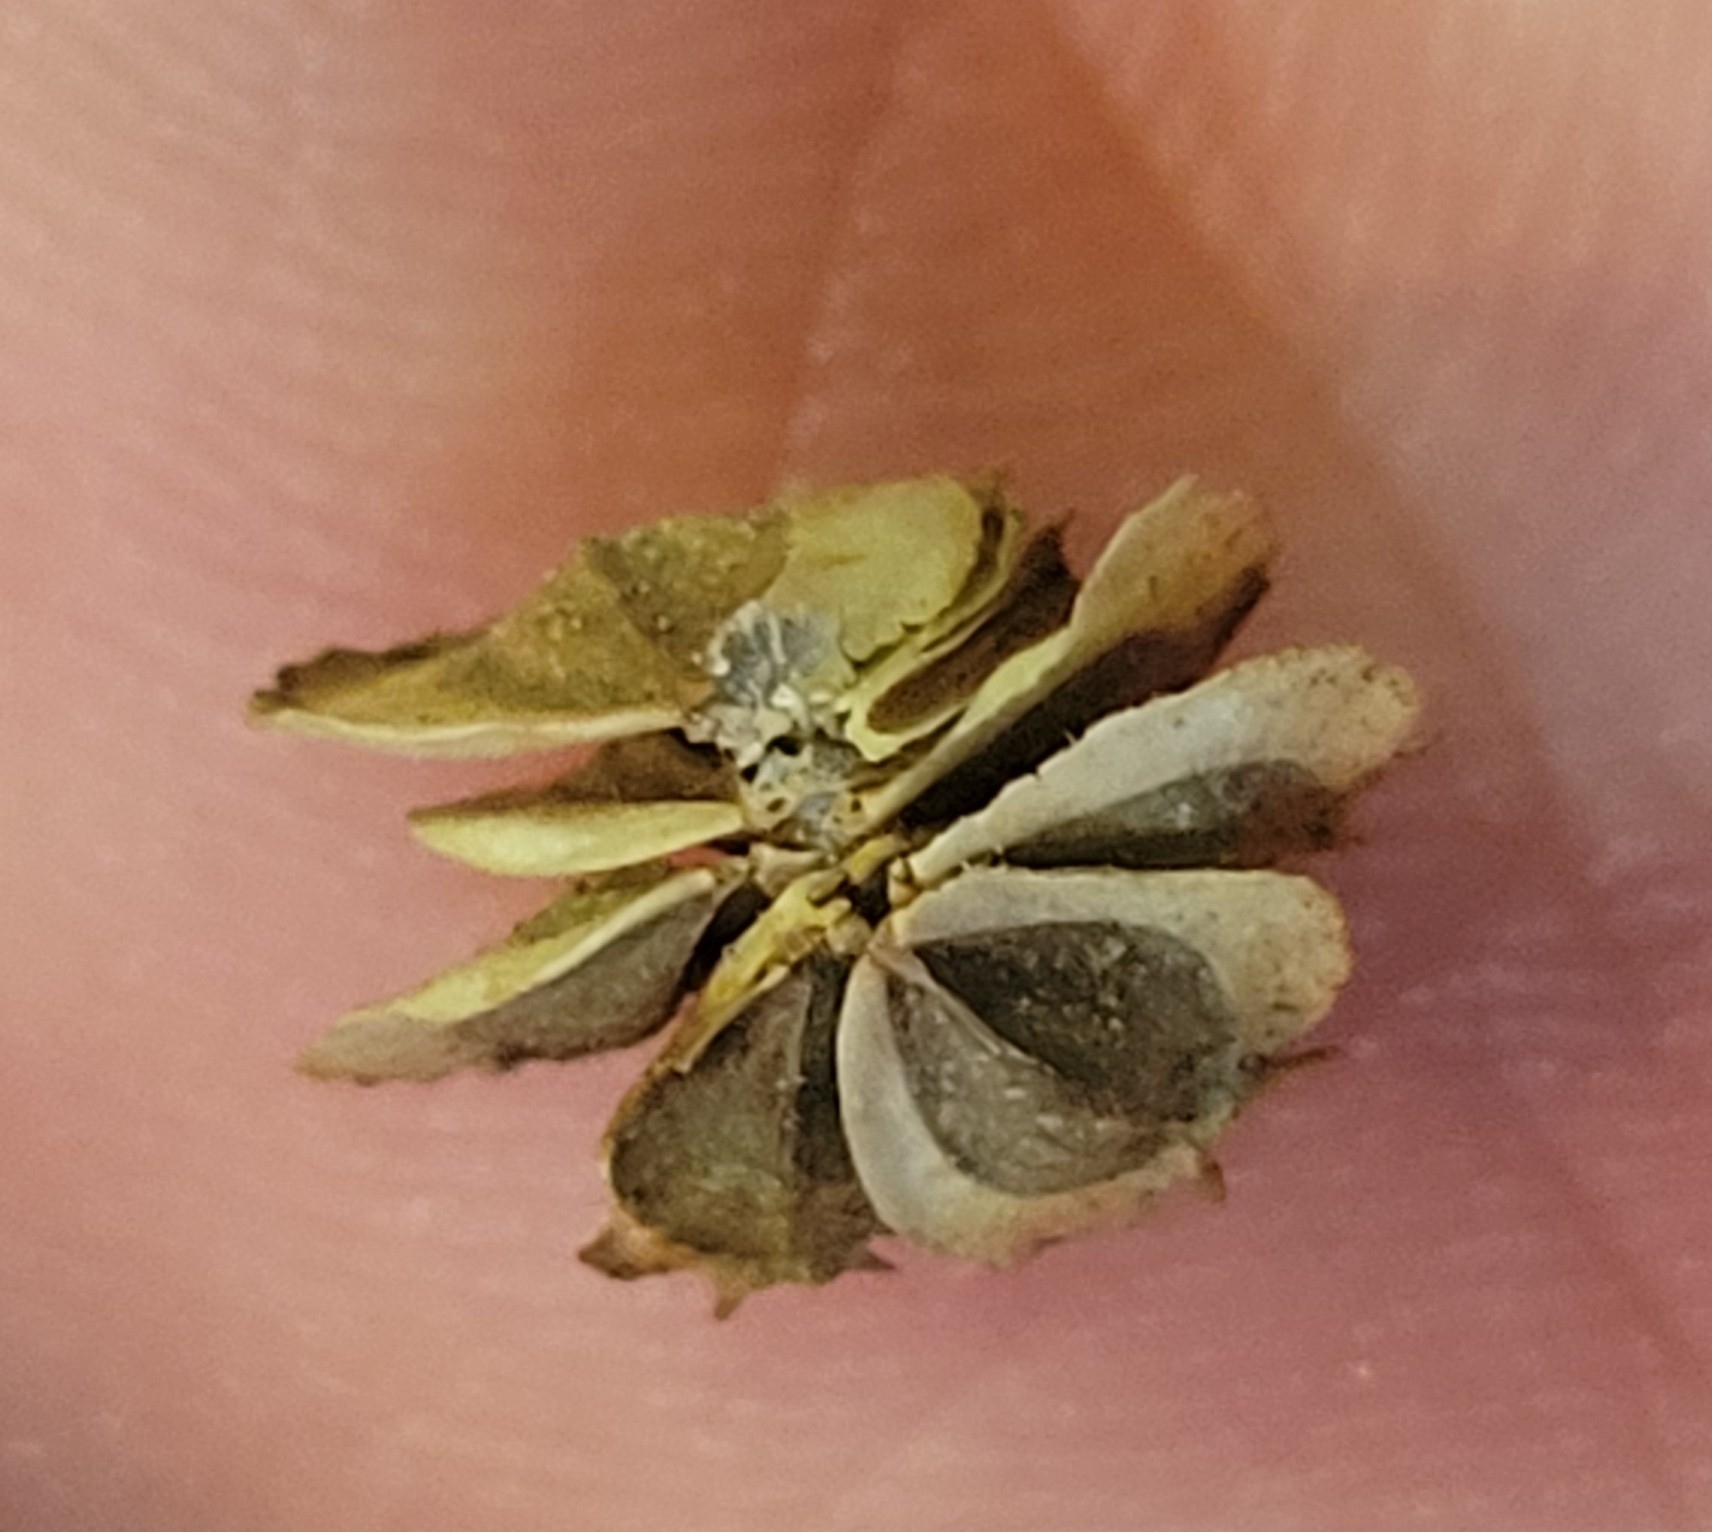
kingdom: Plantae
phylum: Tracheophyta
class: Magnoliopsida
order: Asterales
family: Asteraceae
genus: Verbesina
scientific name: Verbesina alternifolia
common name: Wingstem
